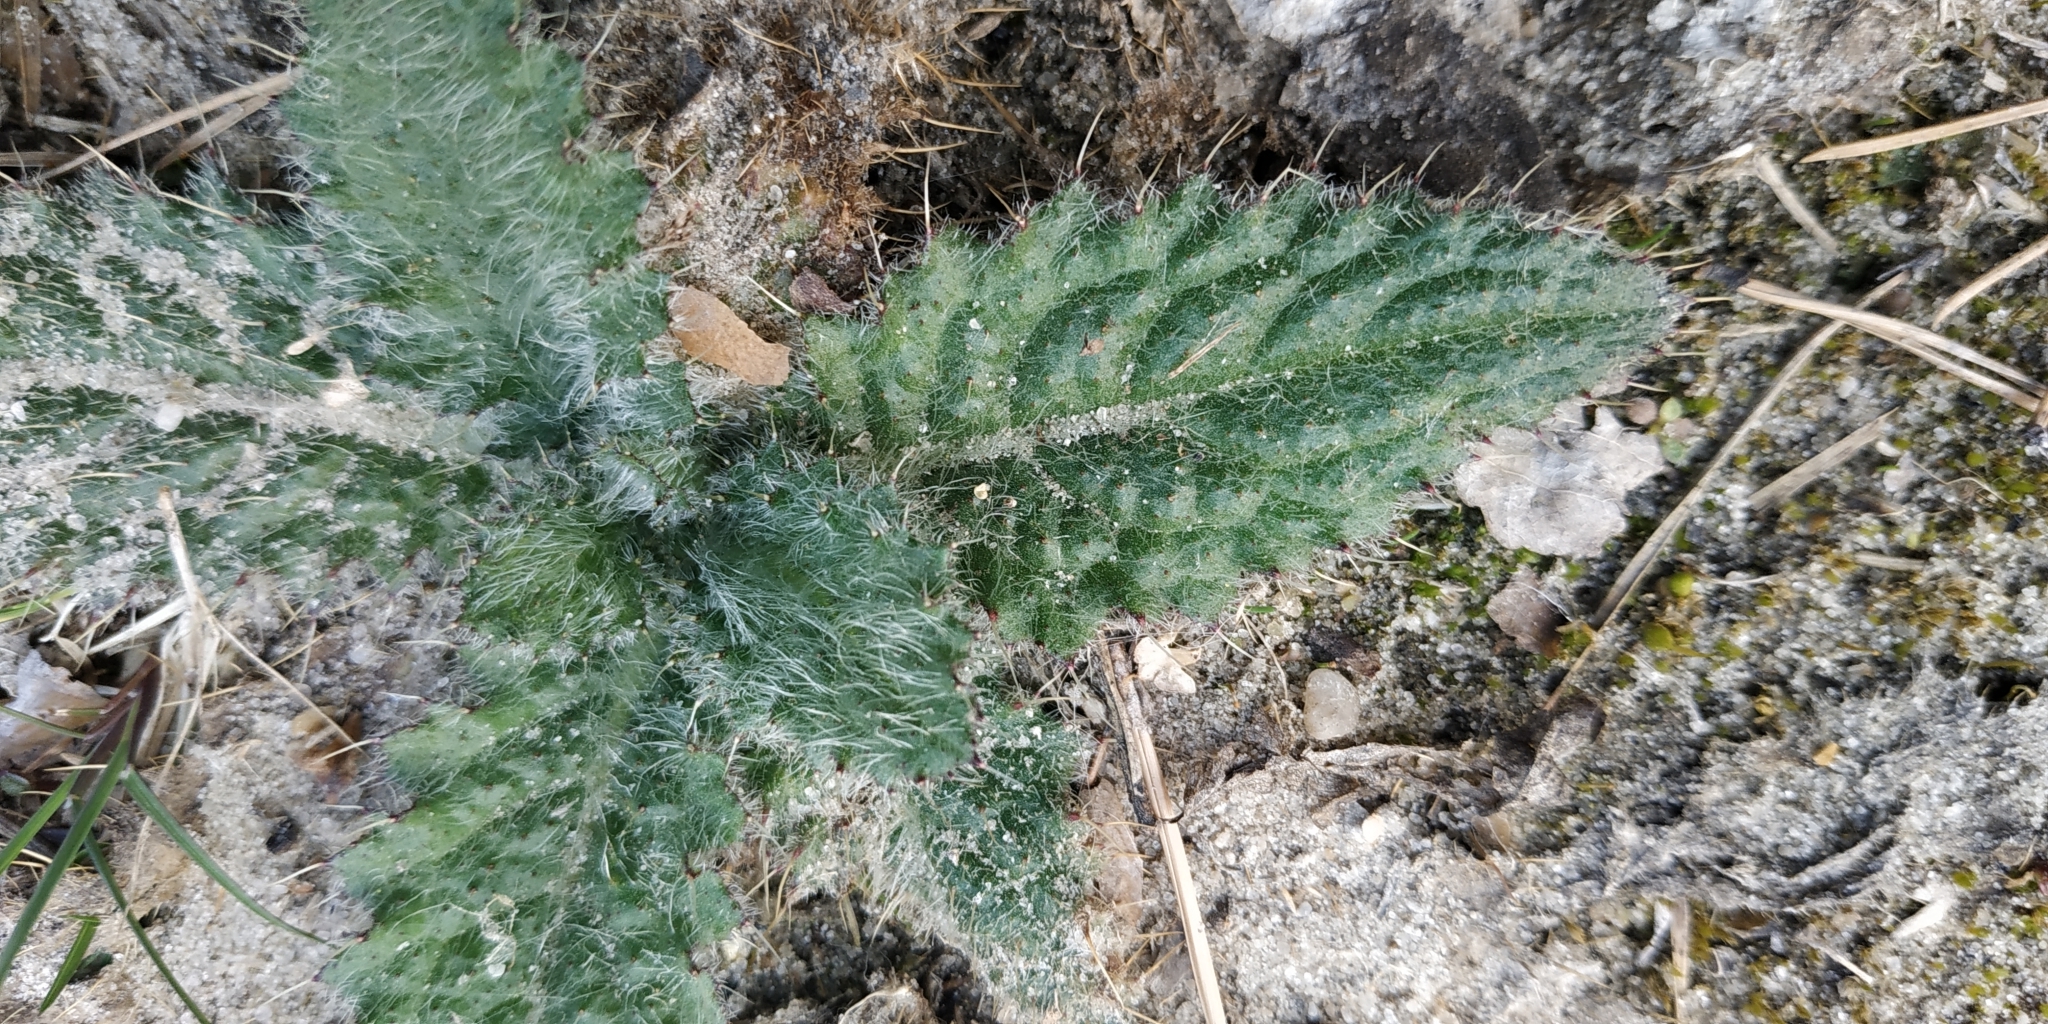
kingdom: Plantae
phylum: Tracheophyta
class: Magnoliopsida
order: Asterales
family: Asteraceae
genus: Cirsium
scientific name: Cirsium vulgare
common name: Bull thistle
